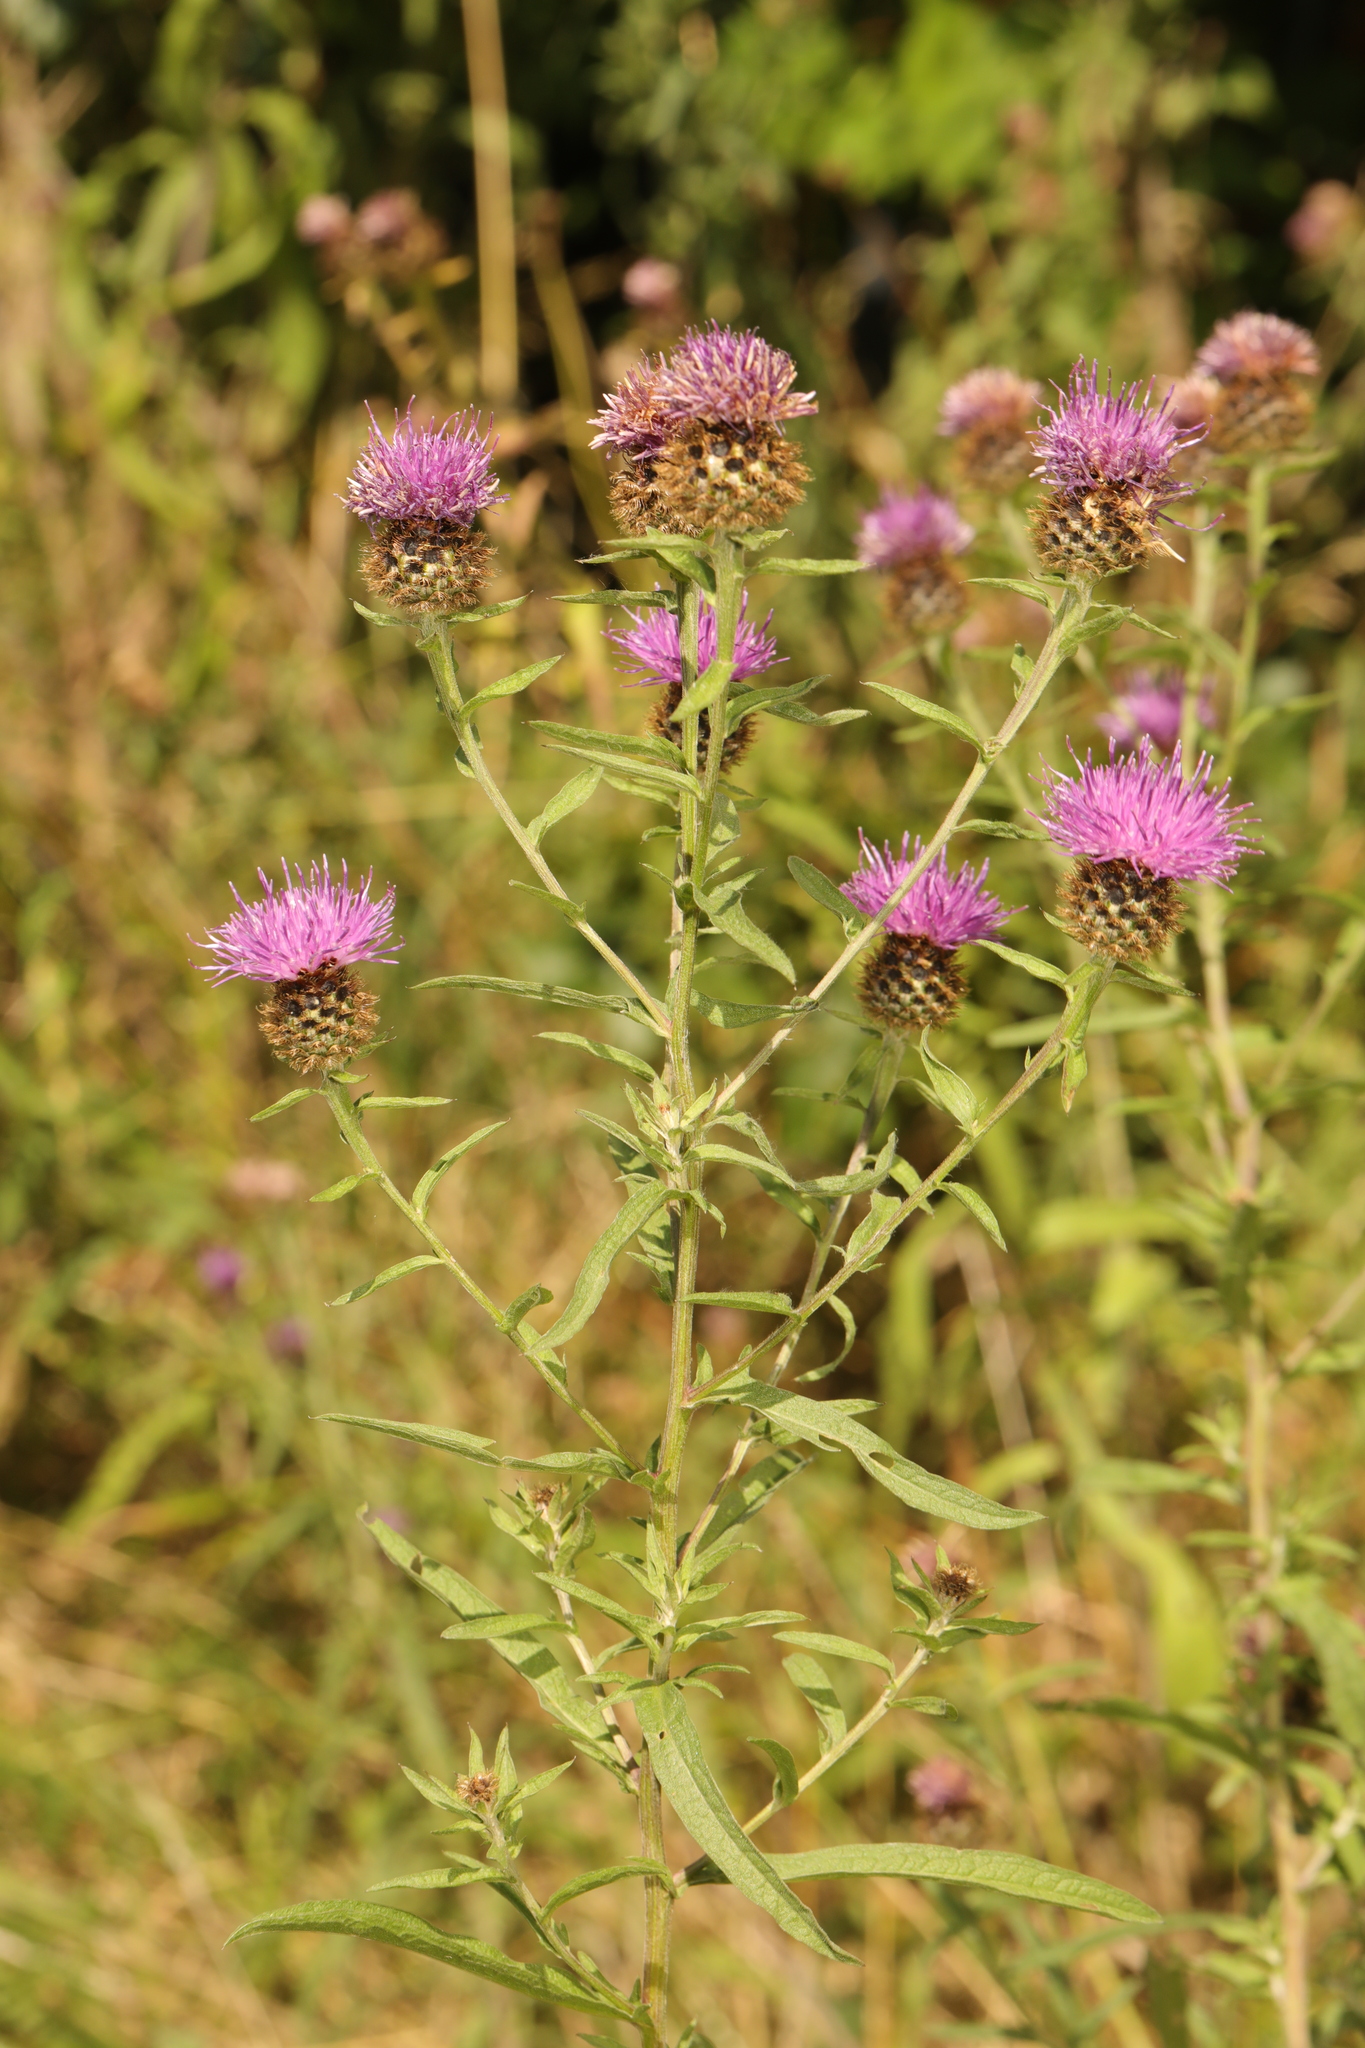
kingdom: Plantae
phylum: Tracheophyta
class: Magnoliopsida
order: Asterales
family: Asteraceae
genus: Centaurea
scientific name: Centaurea nigra
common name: Lesser knapweed
